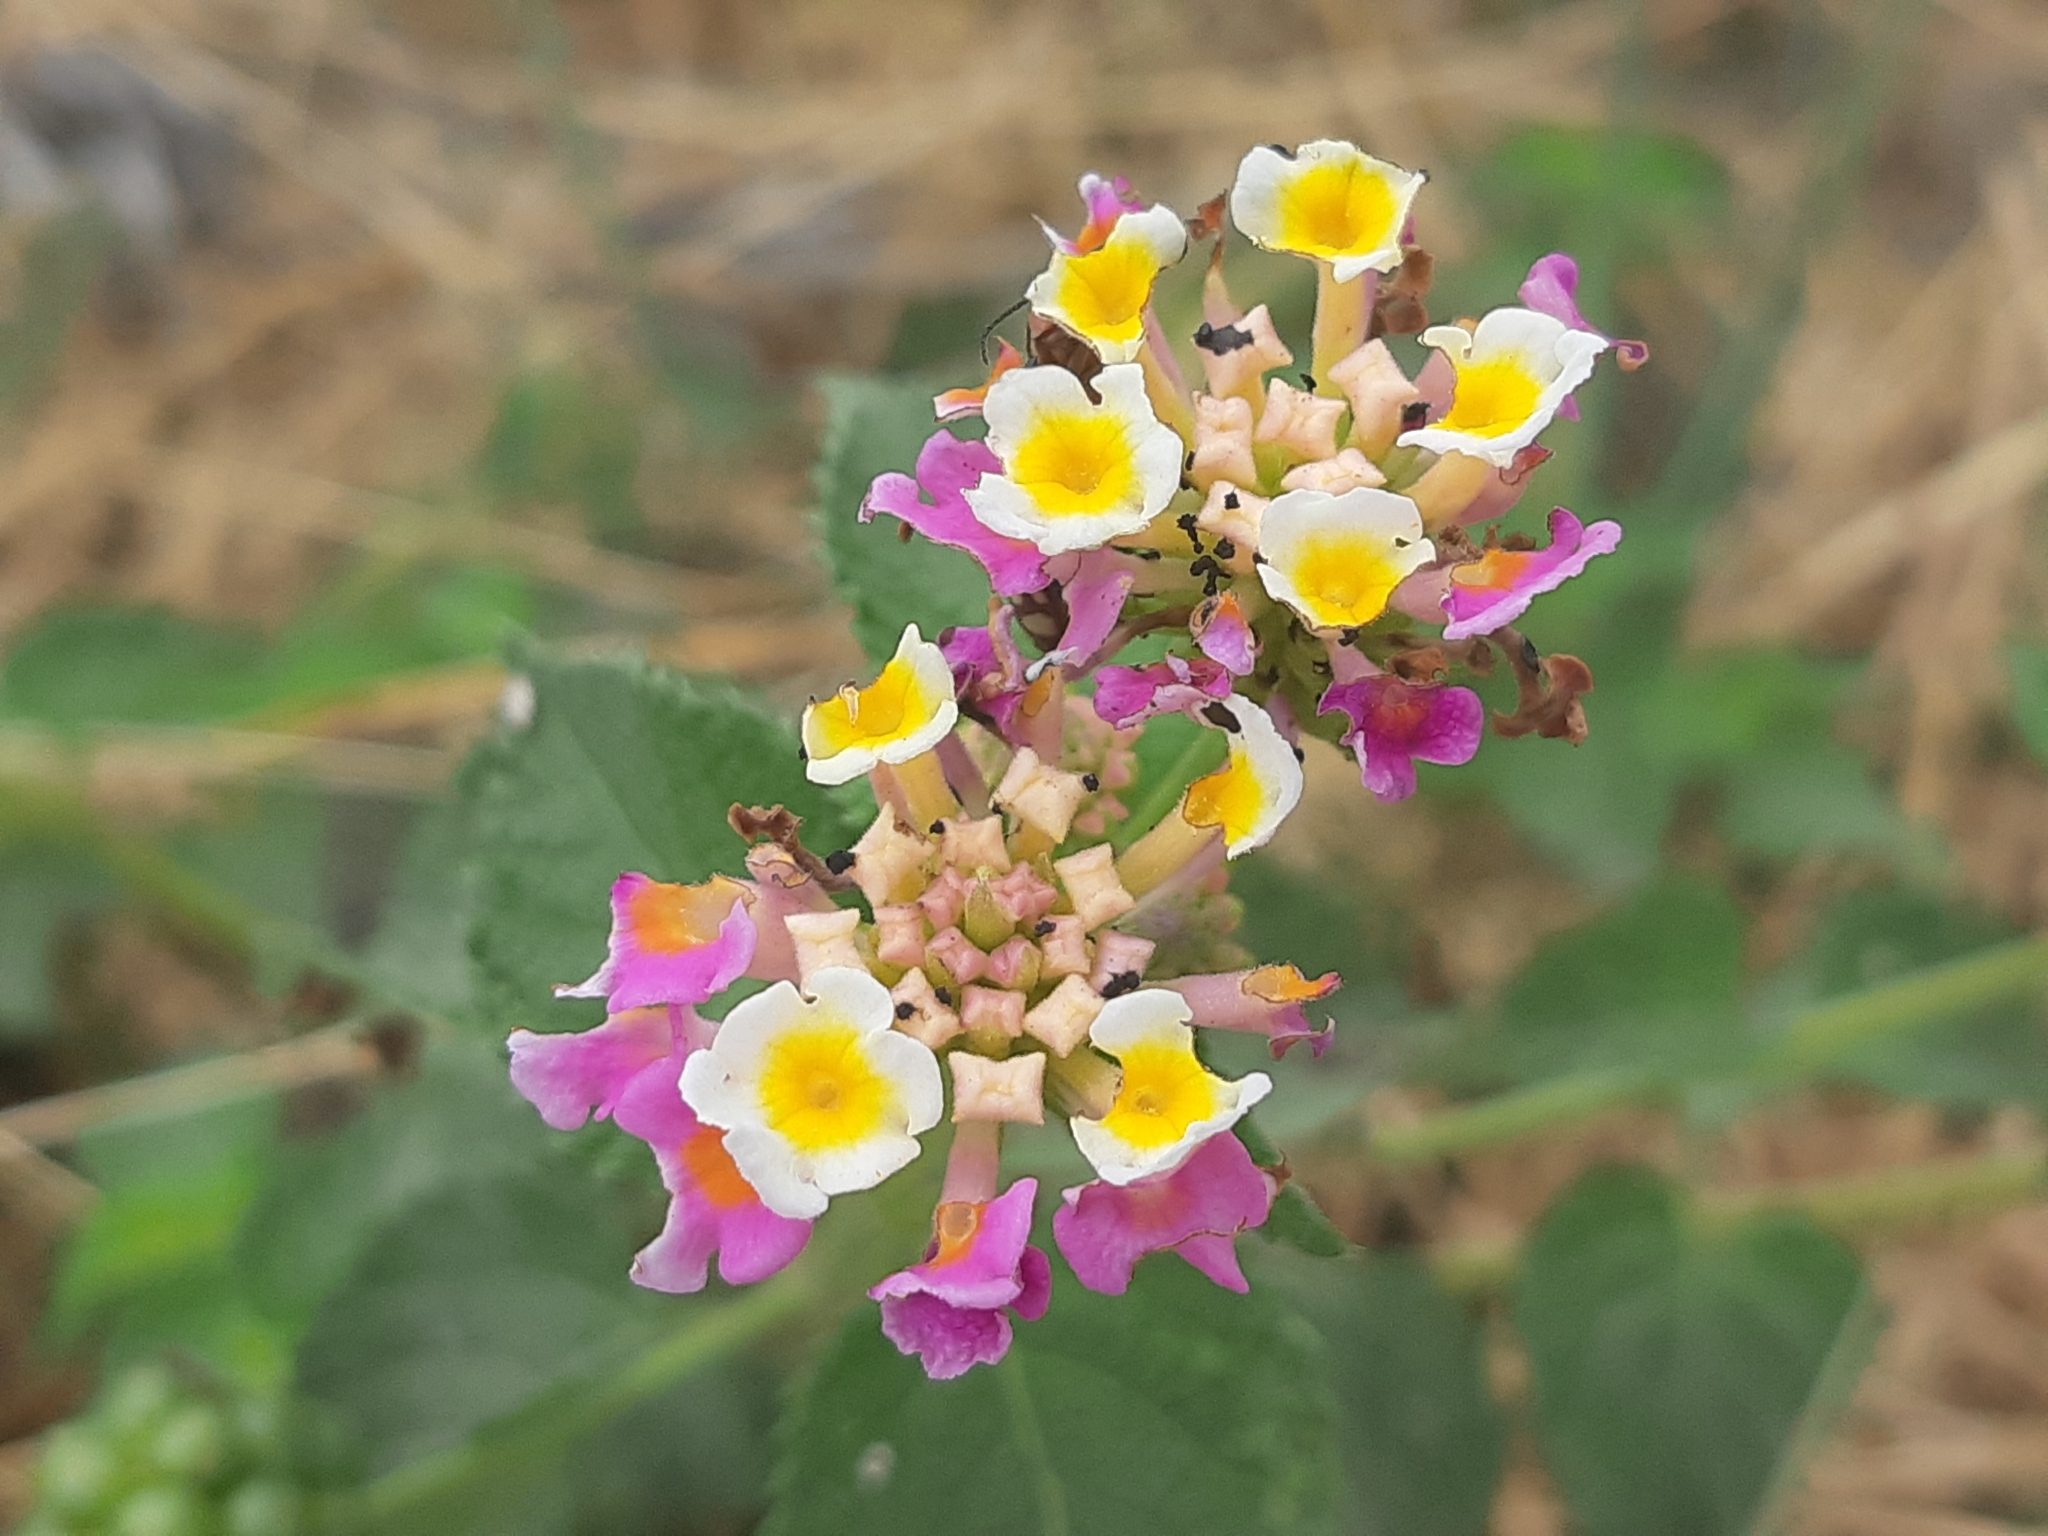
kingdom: Plantae
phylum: Tracheophyta
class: Magnoliopsida
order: Lamiales
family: Verbenaceae
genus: Lantana
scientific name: Lantana camara
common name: Lantana
